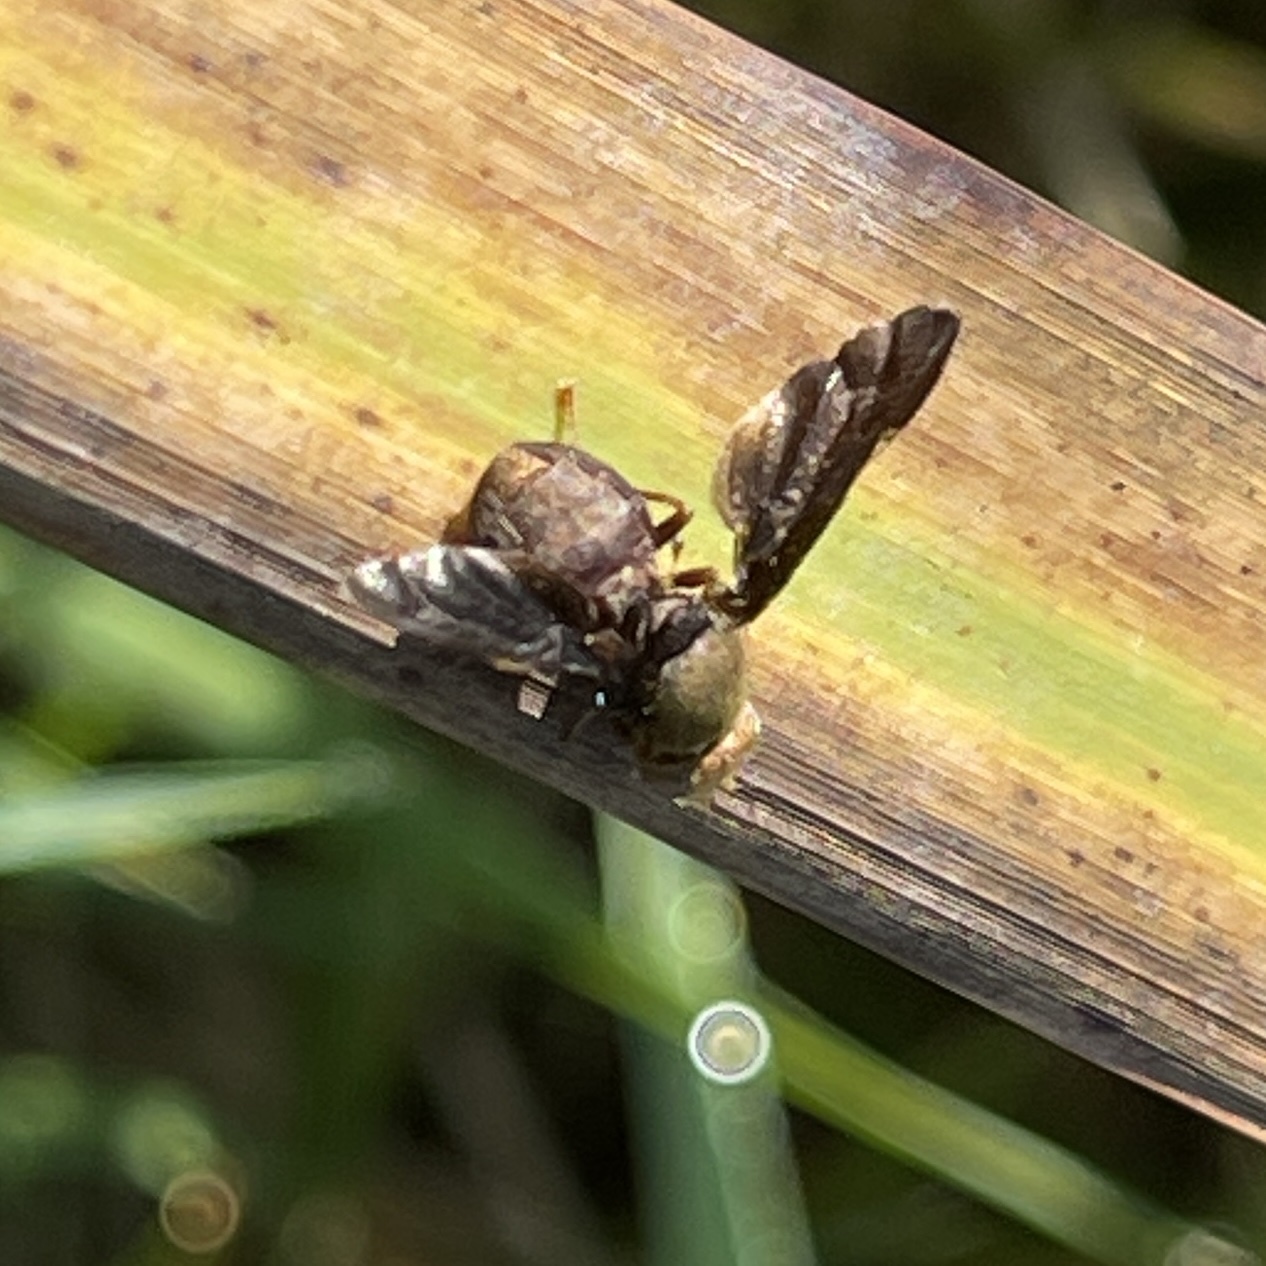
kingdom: Animalia
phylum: Arthropoda
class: Insecta
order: Diptera
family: Tephritidae
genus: Eurosta
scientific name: Eurosta comma
